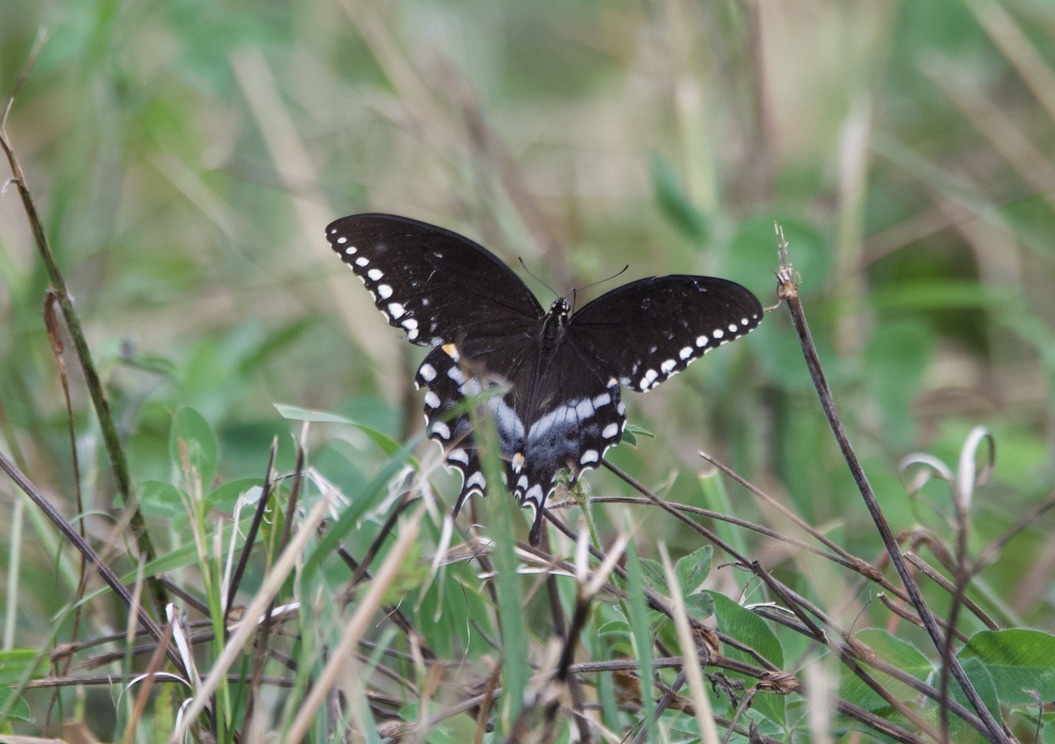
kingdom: Animalia
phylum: Arthropoda
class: Insecta
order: Lepidoptera
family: Papilionidae
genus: Papilio
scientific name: Papilio troilus
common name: Spicebush swallowtail
